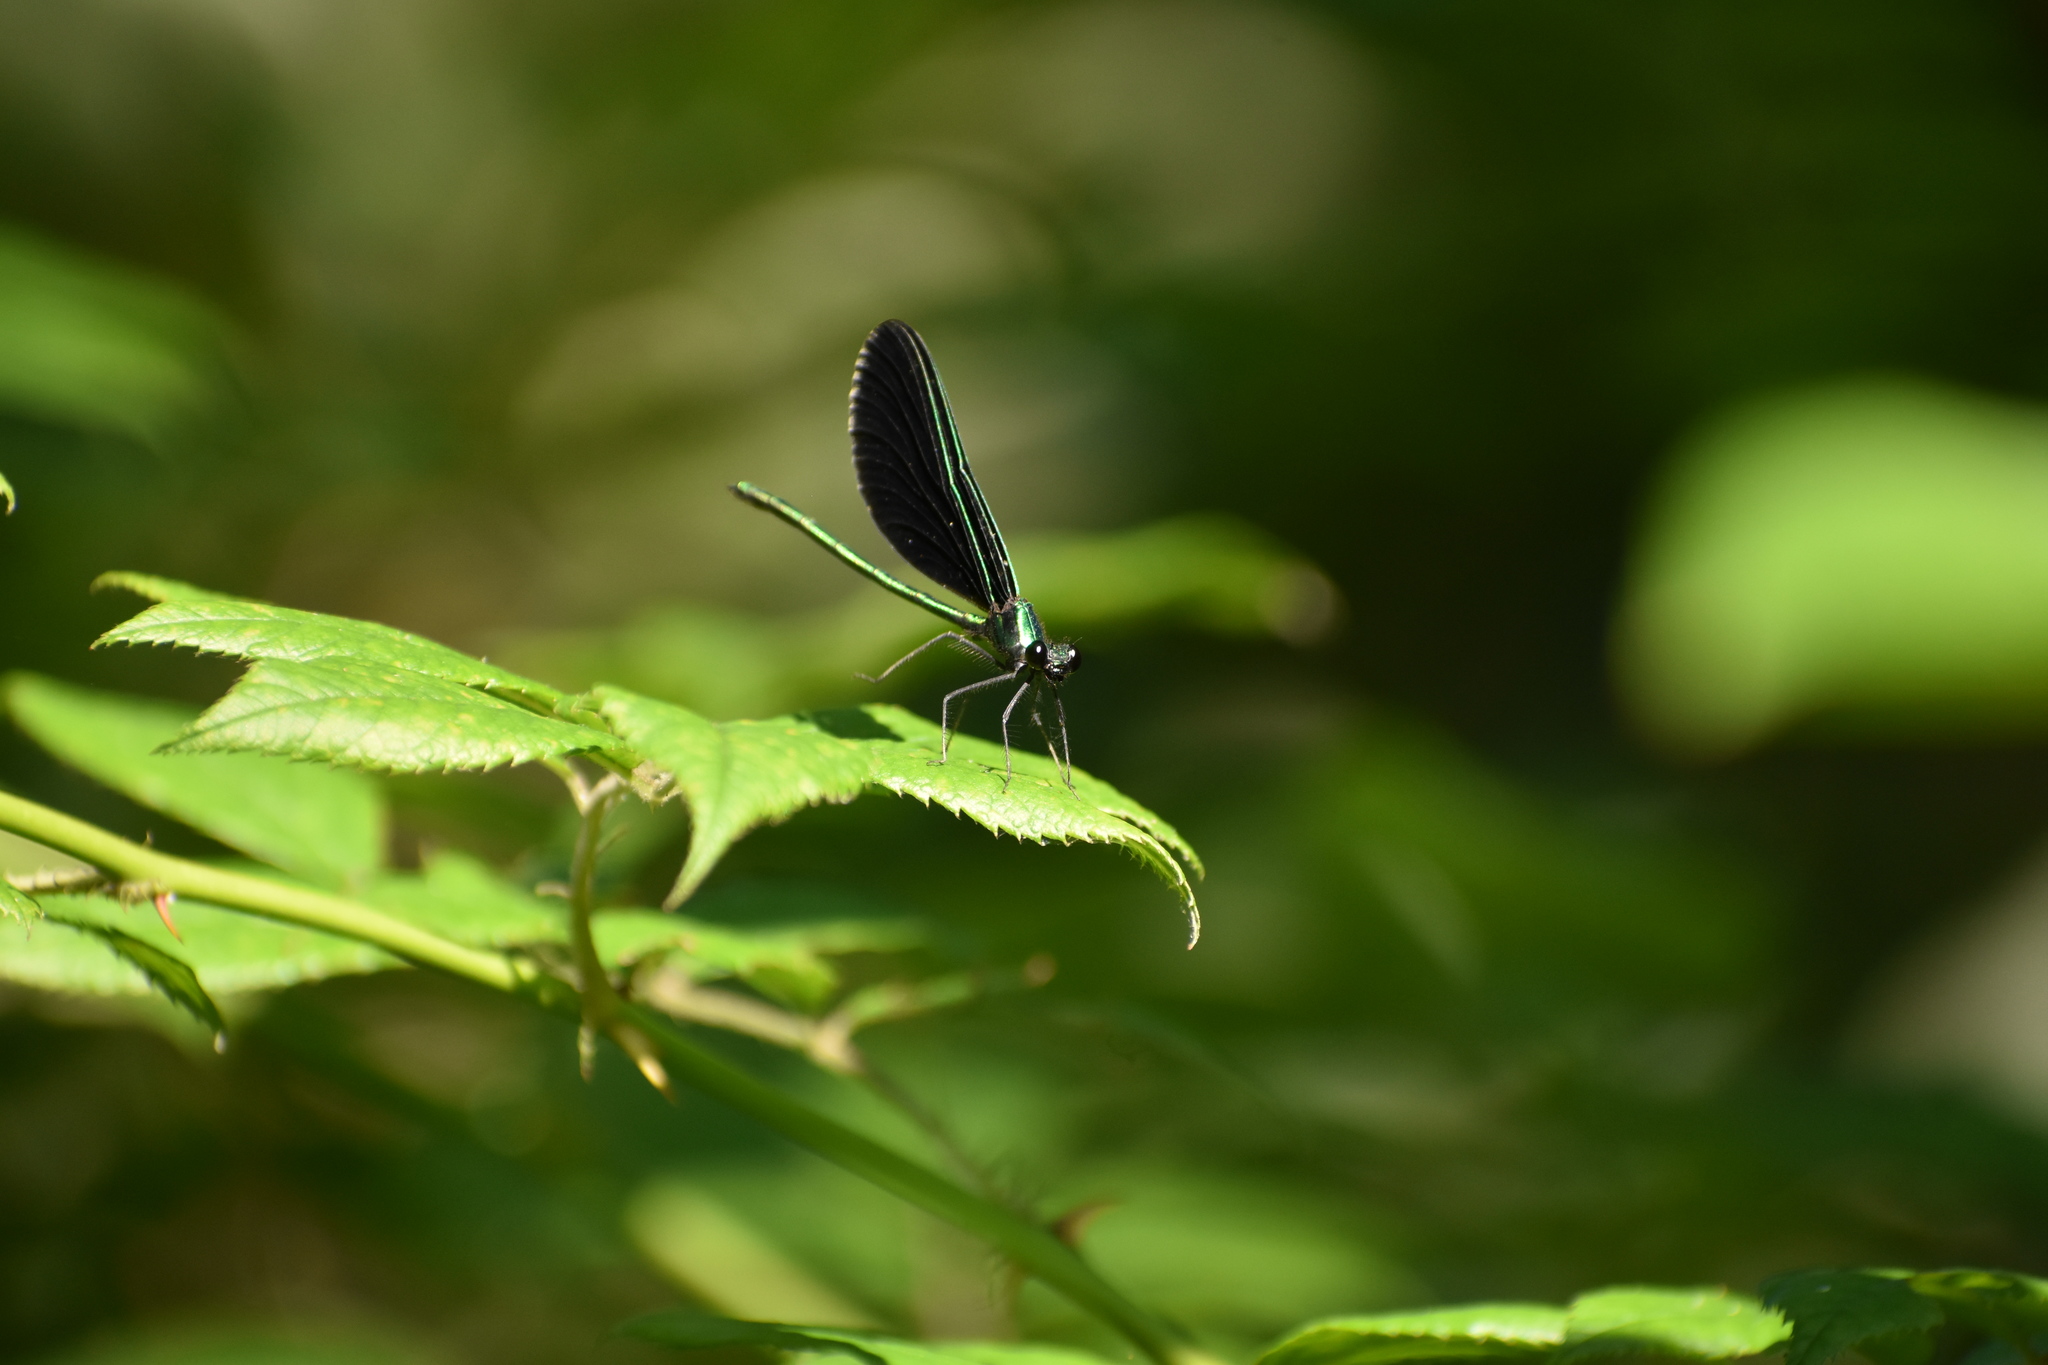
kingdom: Animalia
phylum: Arthropoda
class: Insecta
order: Odonata
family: Calopterygidae
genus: Calopteryx
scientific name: Calopteryx maculata
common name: Ebony jewelwing
